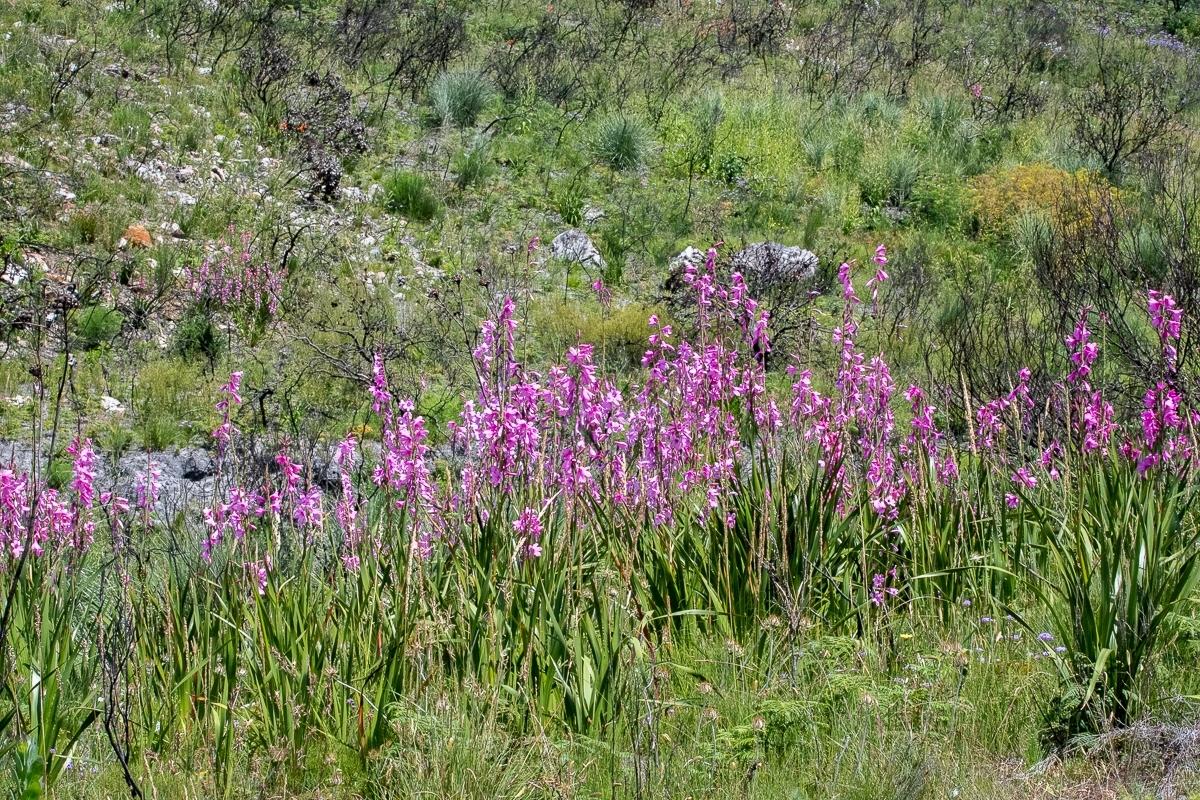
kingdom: Plantae
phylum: Tracheophyta
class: Liliopsida
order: Asparagales
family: Iridaceae
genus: Watsonia
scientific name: Watsonia borbonica
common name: Bugle-lily
